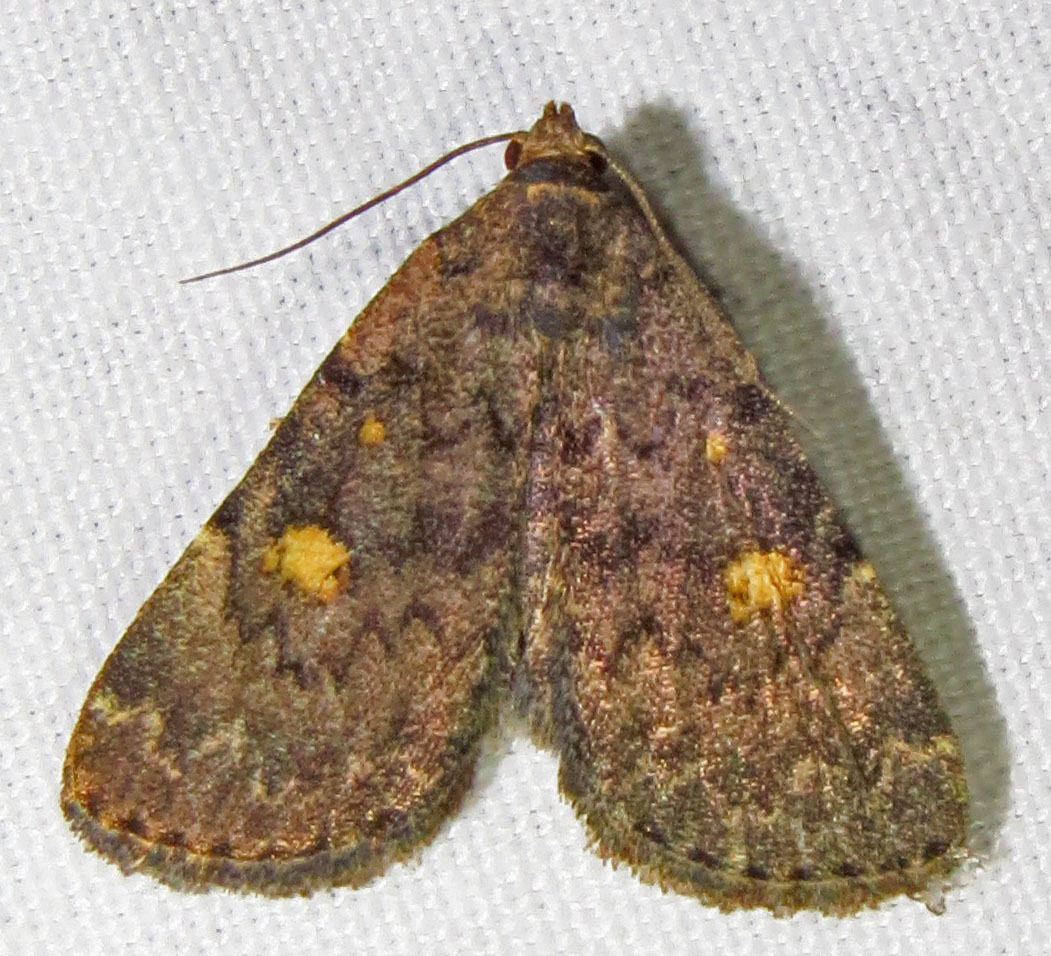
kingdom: Animalia
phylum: Arthropoda
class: Insecta
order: Lepidoptera
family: Erebidae
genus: Idia
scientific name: Idia aemula
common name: Common idia moth
